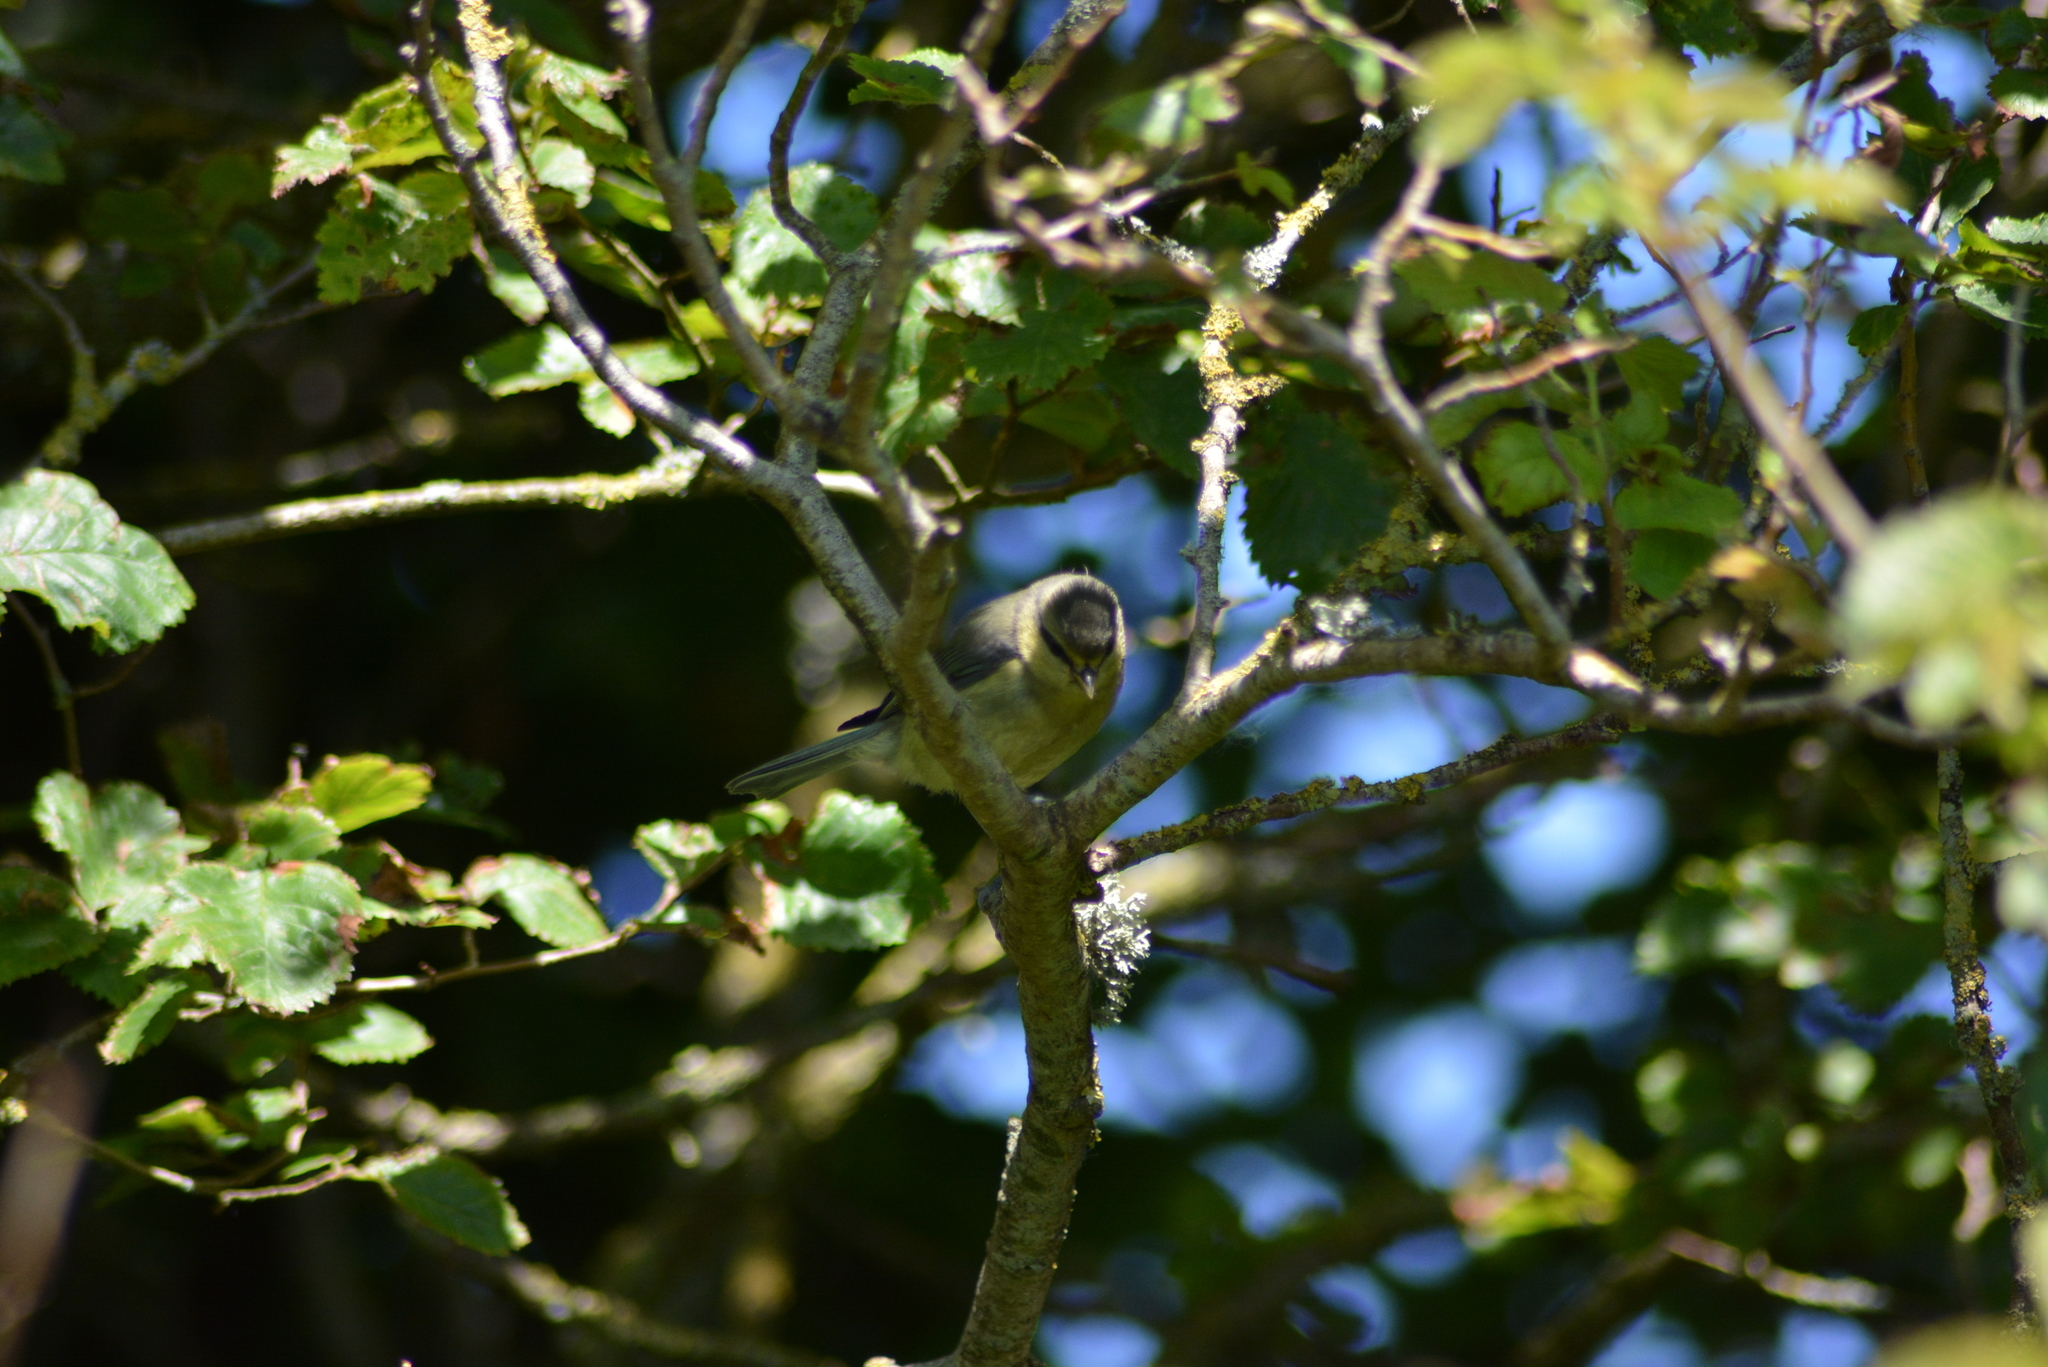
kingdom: Animalia
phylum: Chordata
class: Aves
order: Passeriformes
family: Paridae
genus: Cyanistes
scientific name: Cyanistes caeruleus
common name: Eurasian blue tit
